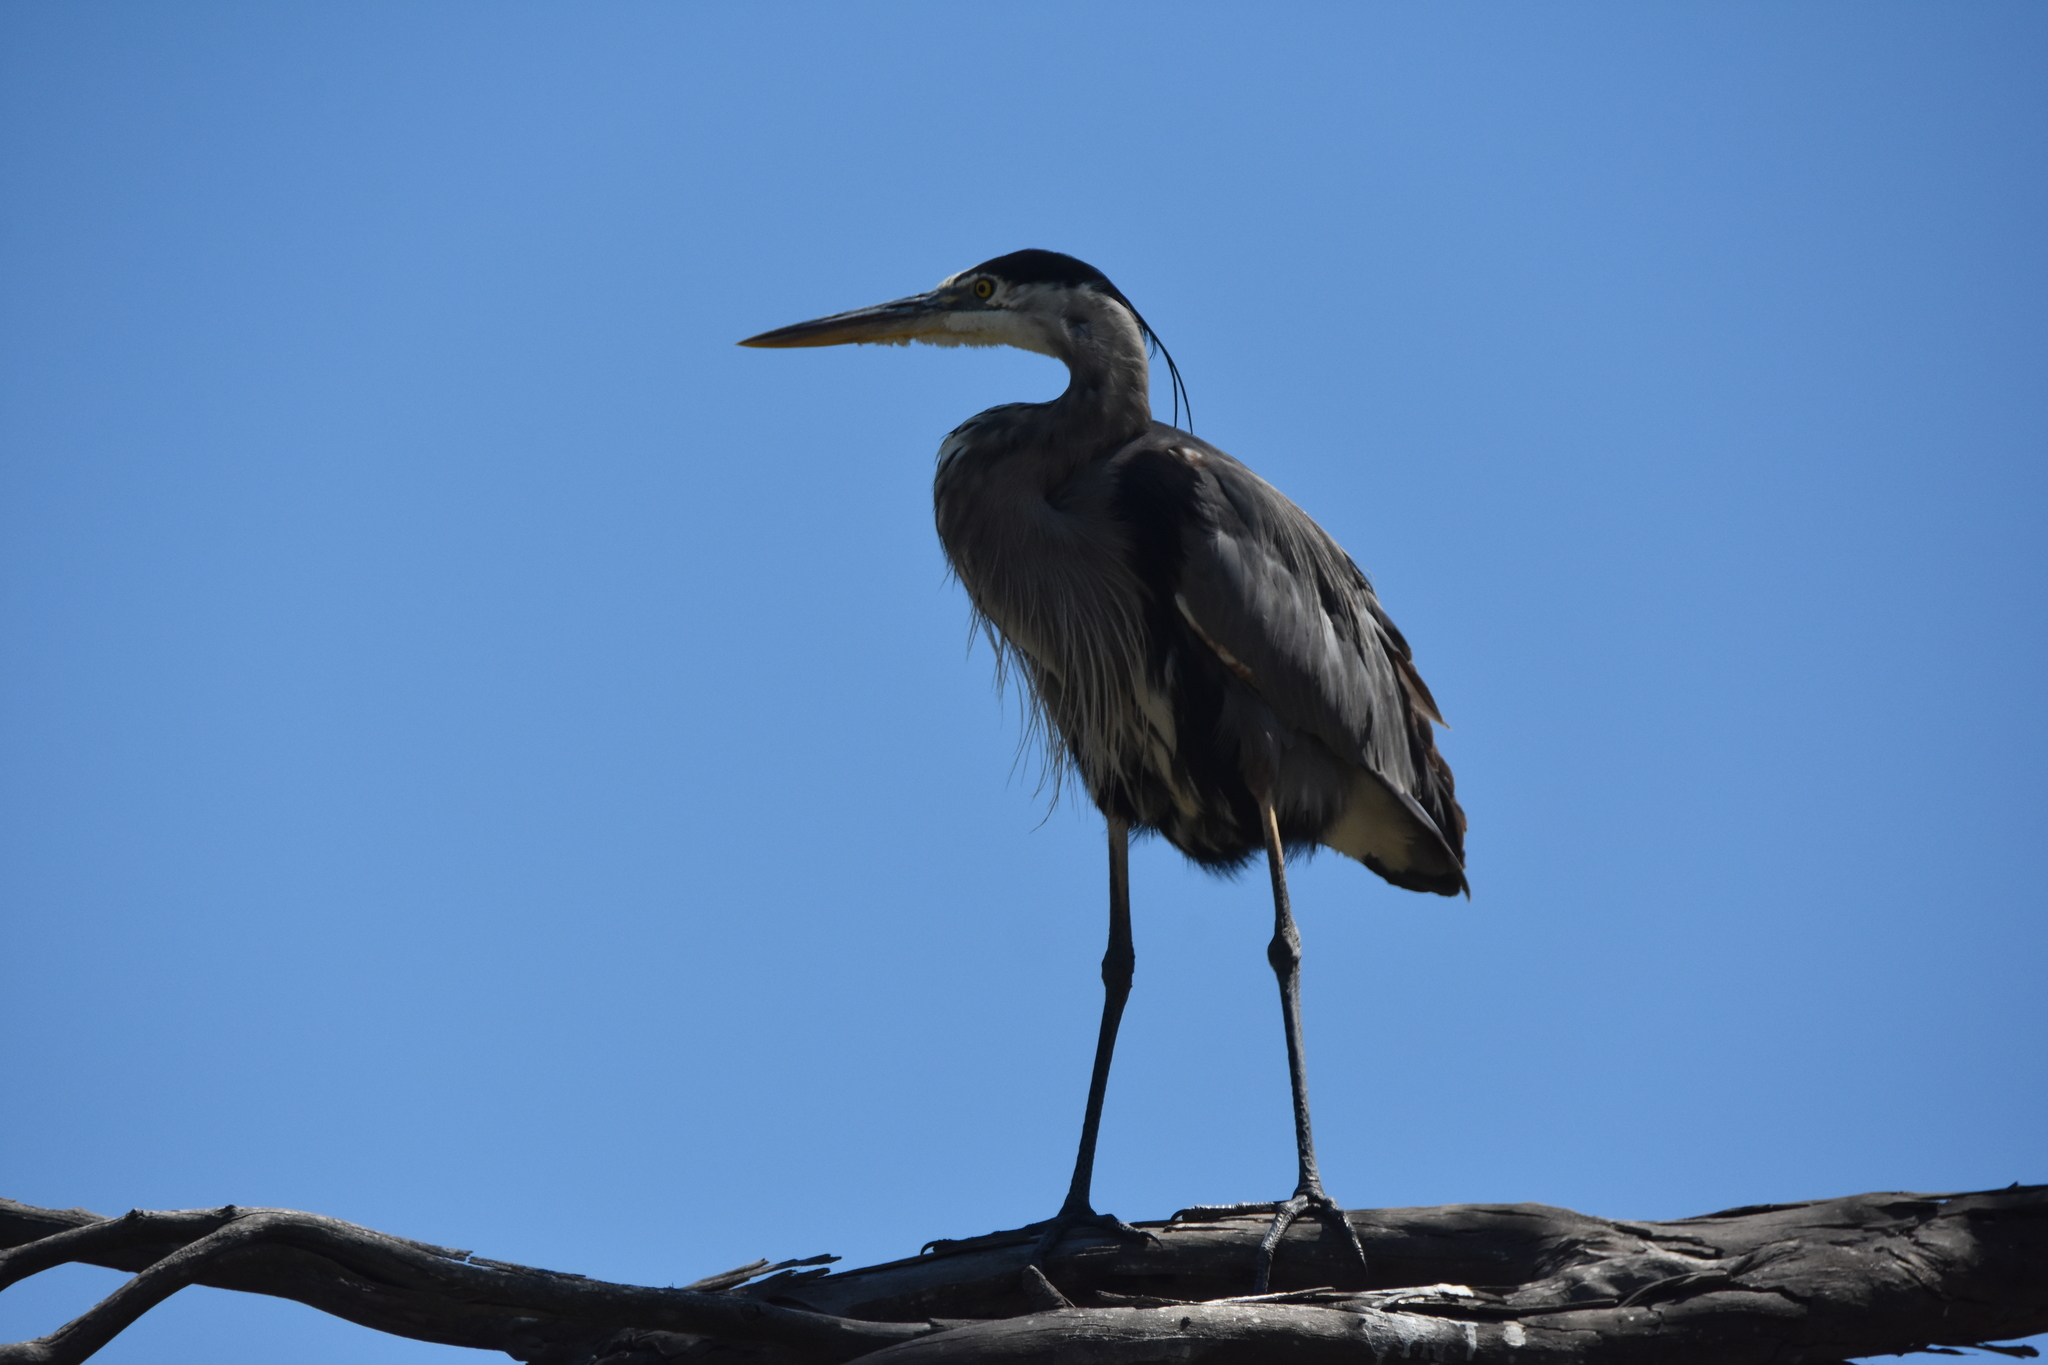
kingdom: Animalia
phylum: Chordata
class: Aves
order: Pelecaniformes
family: Ardeidae
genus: Ardea
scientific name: Ardea herodias
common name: Great blue heron
